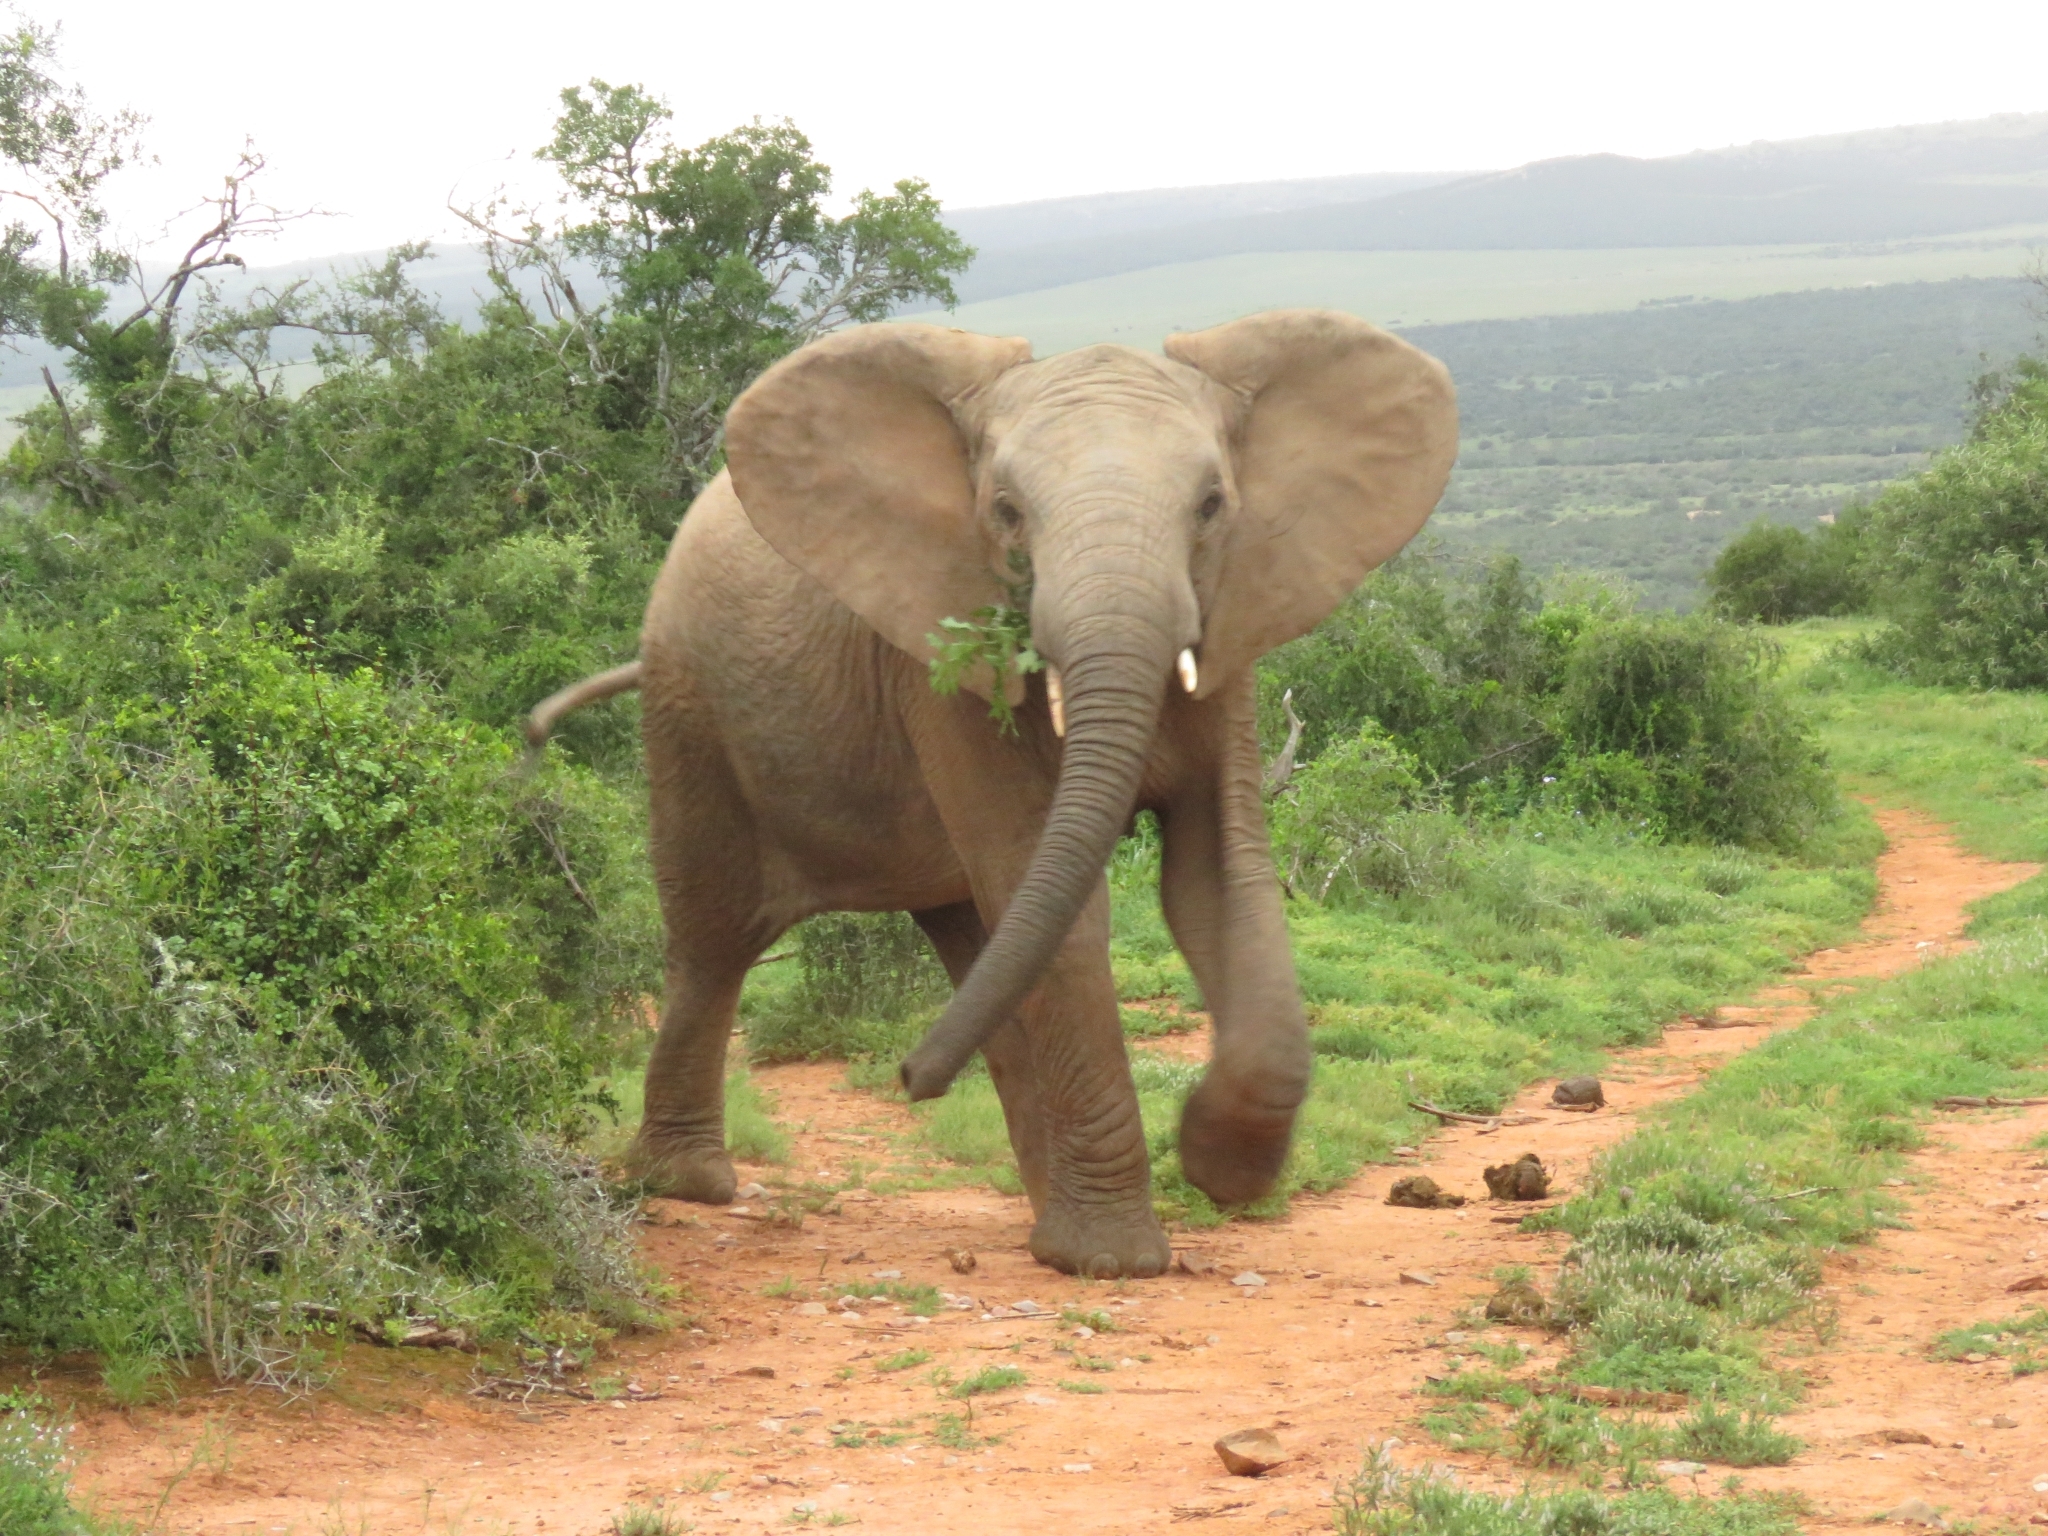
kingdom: Animalia
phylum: Chordata
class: Mammalia
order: Proboscidea
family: Elephantidae
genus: Loxodonta
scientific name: Loxodonta africana
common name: African elephant
